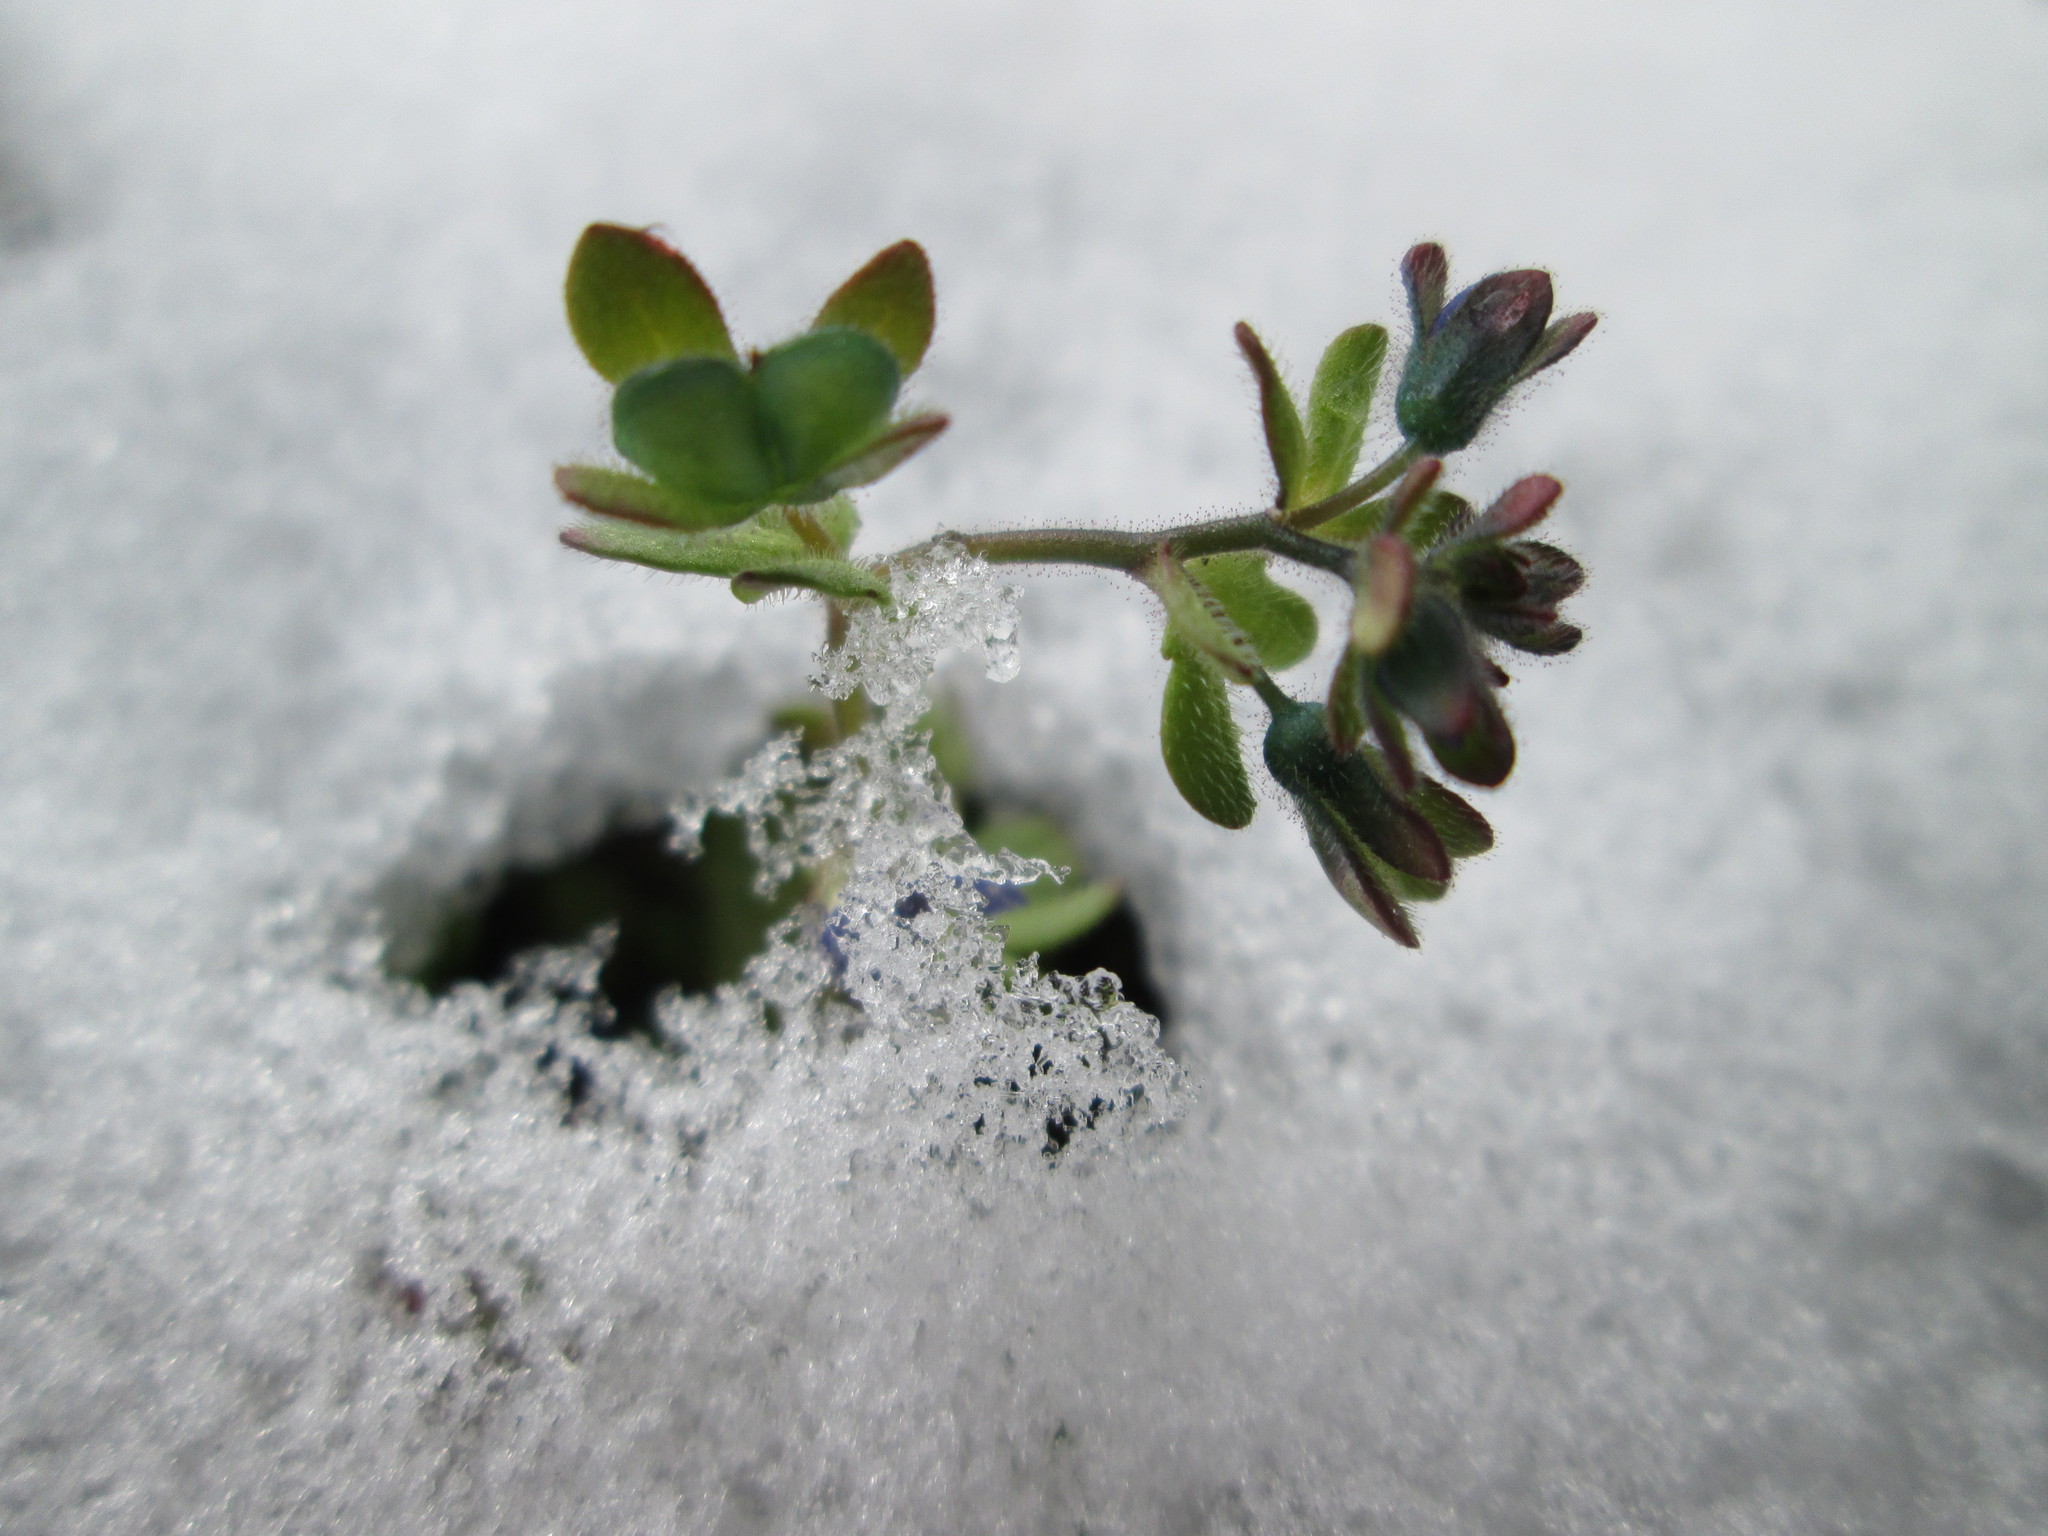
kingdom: Plantae
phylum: Tracheophyta
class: Magnoliopsida
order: Lamiales
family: Plantaginaceae
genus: Veronica
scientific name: Veronica triphyllos
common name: Fingered speedwell
